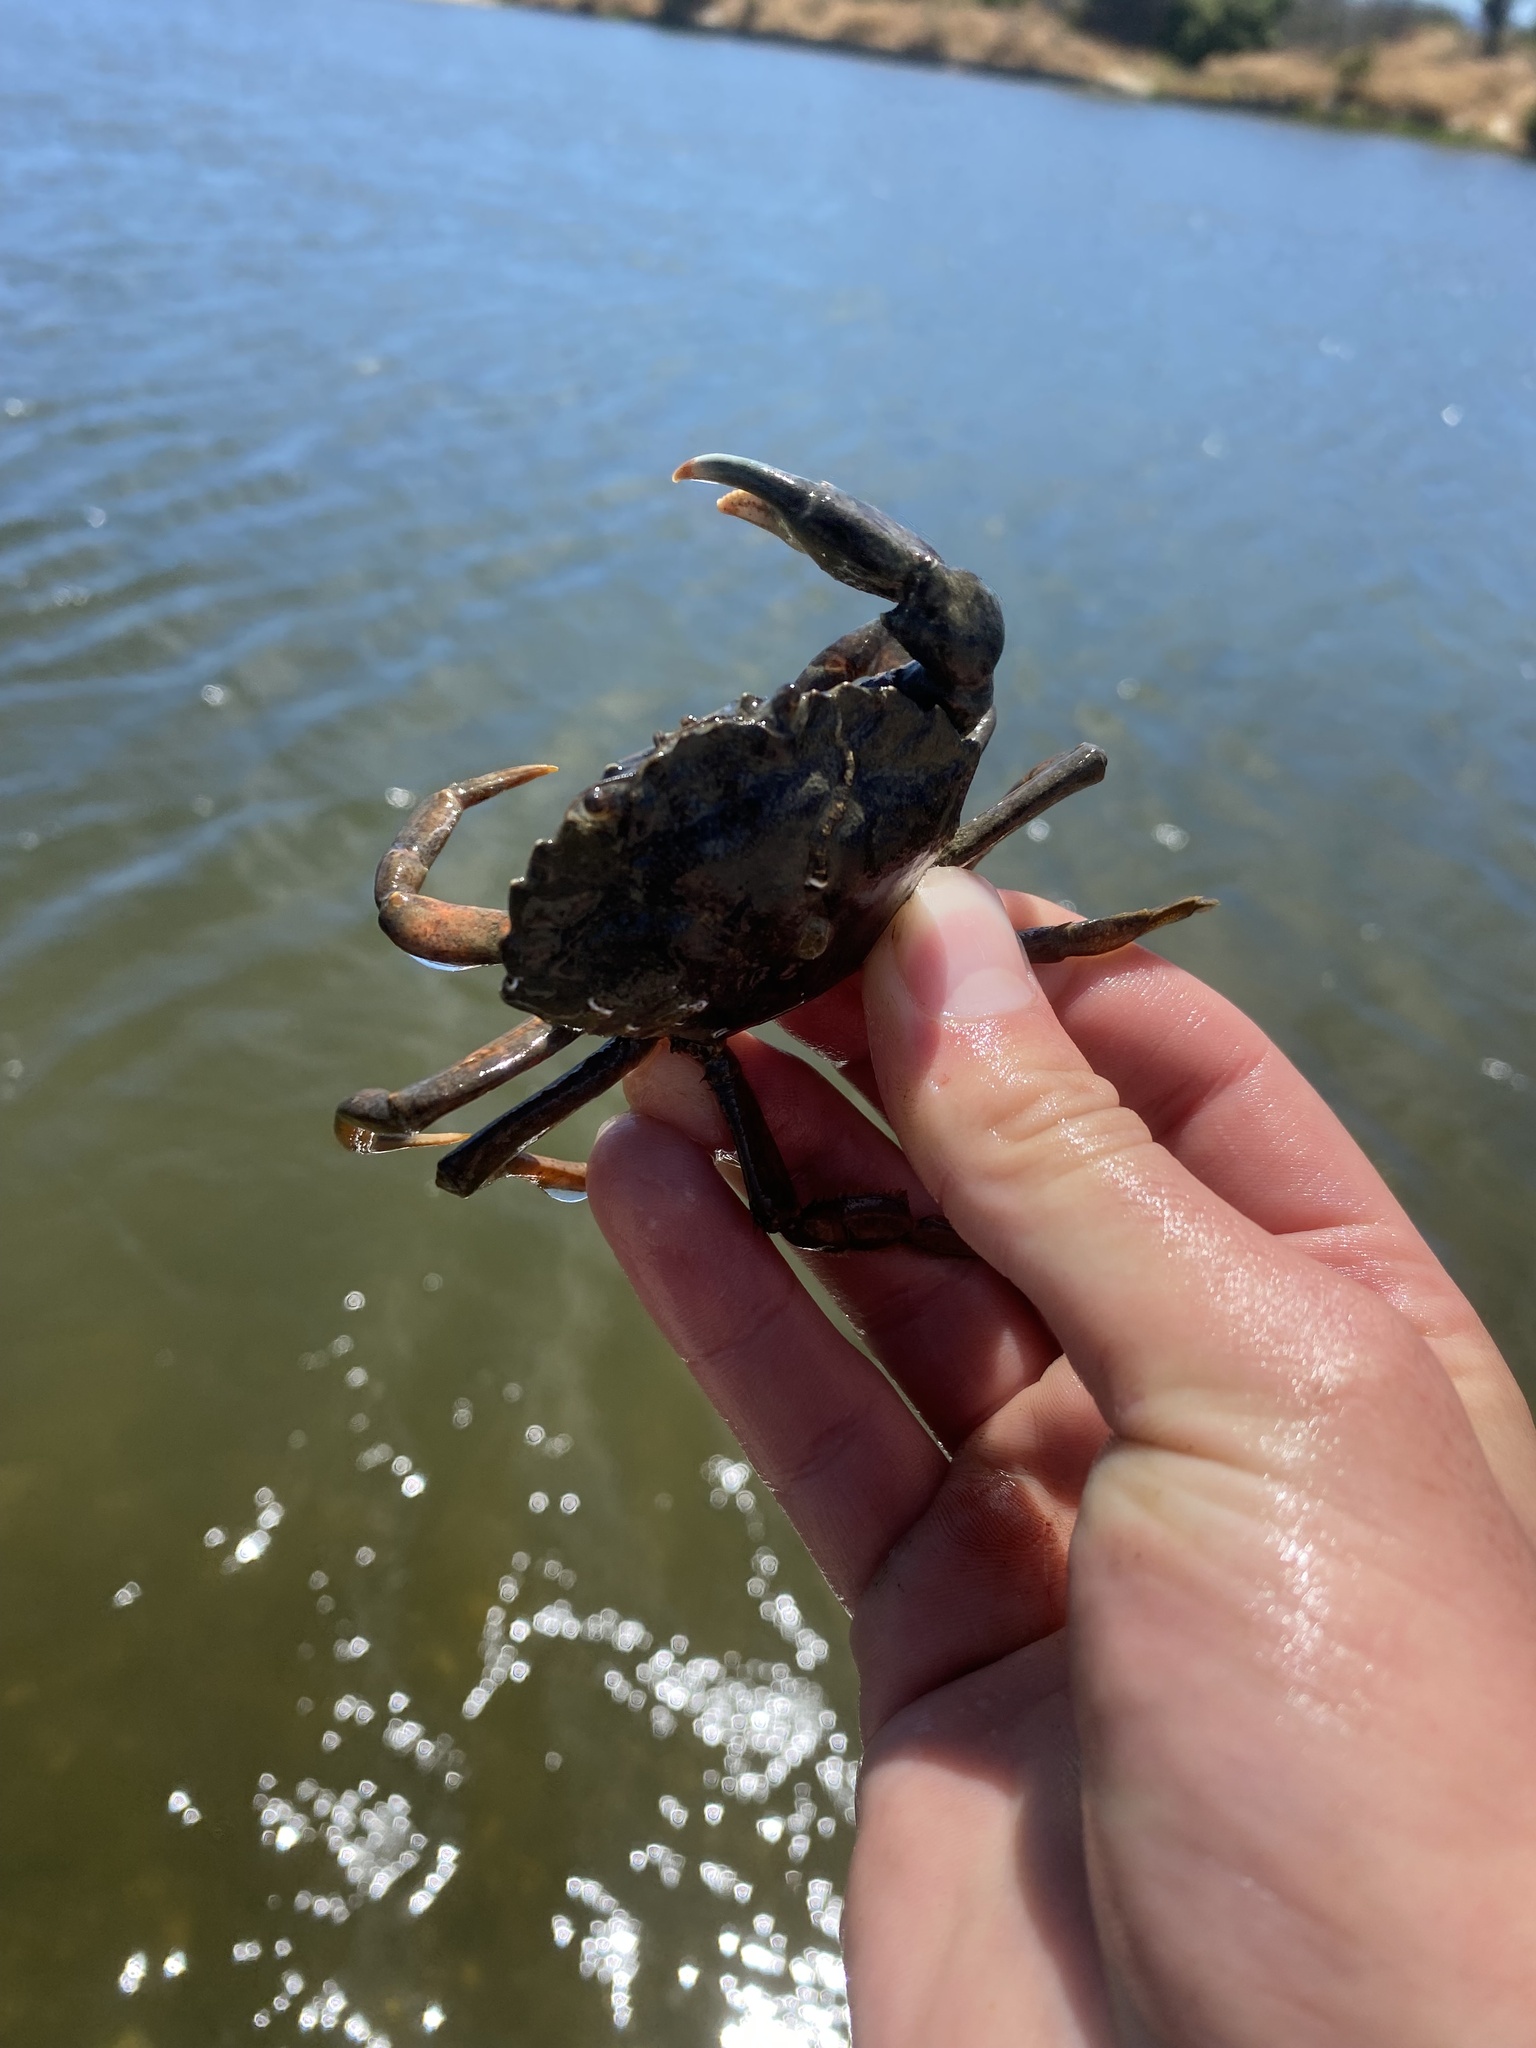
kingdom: Animalia
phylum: Arthropoda
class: Malacostraca
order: Decapoda
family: Carcinidae
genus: Carcinus
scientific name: Carcinus maenas
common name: European green crab
